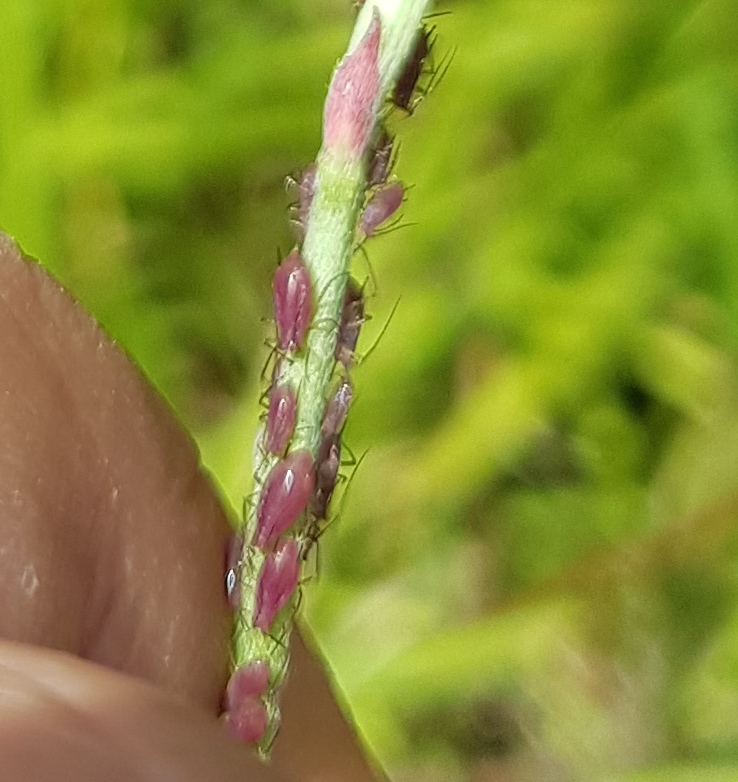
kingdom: Animalia
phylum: Arthropoda
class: Insecta
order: Hemiptera
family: Aphididae
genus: Macrosiphum
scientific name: Macrosiphum gaurae
